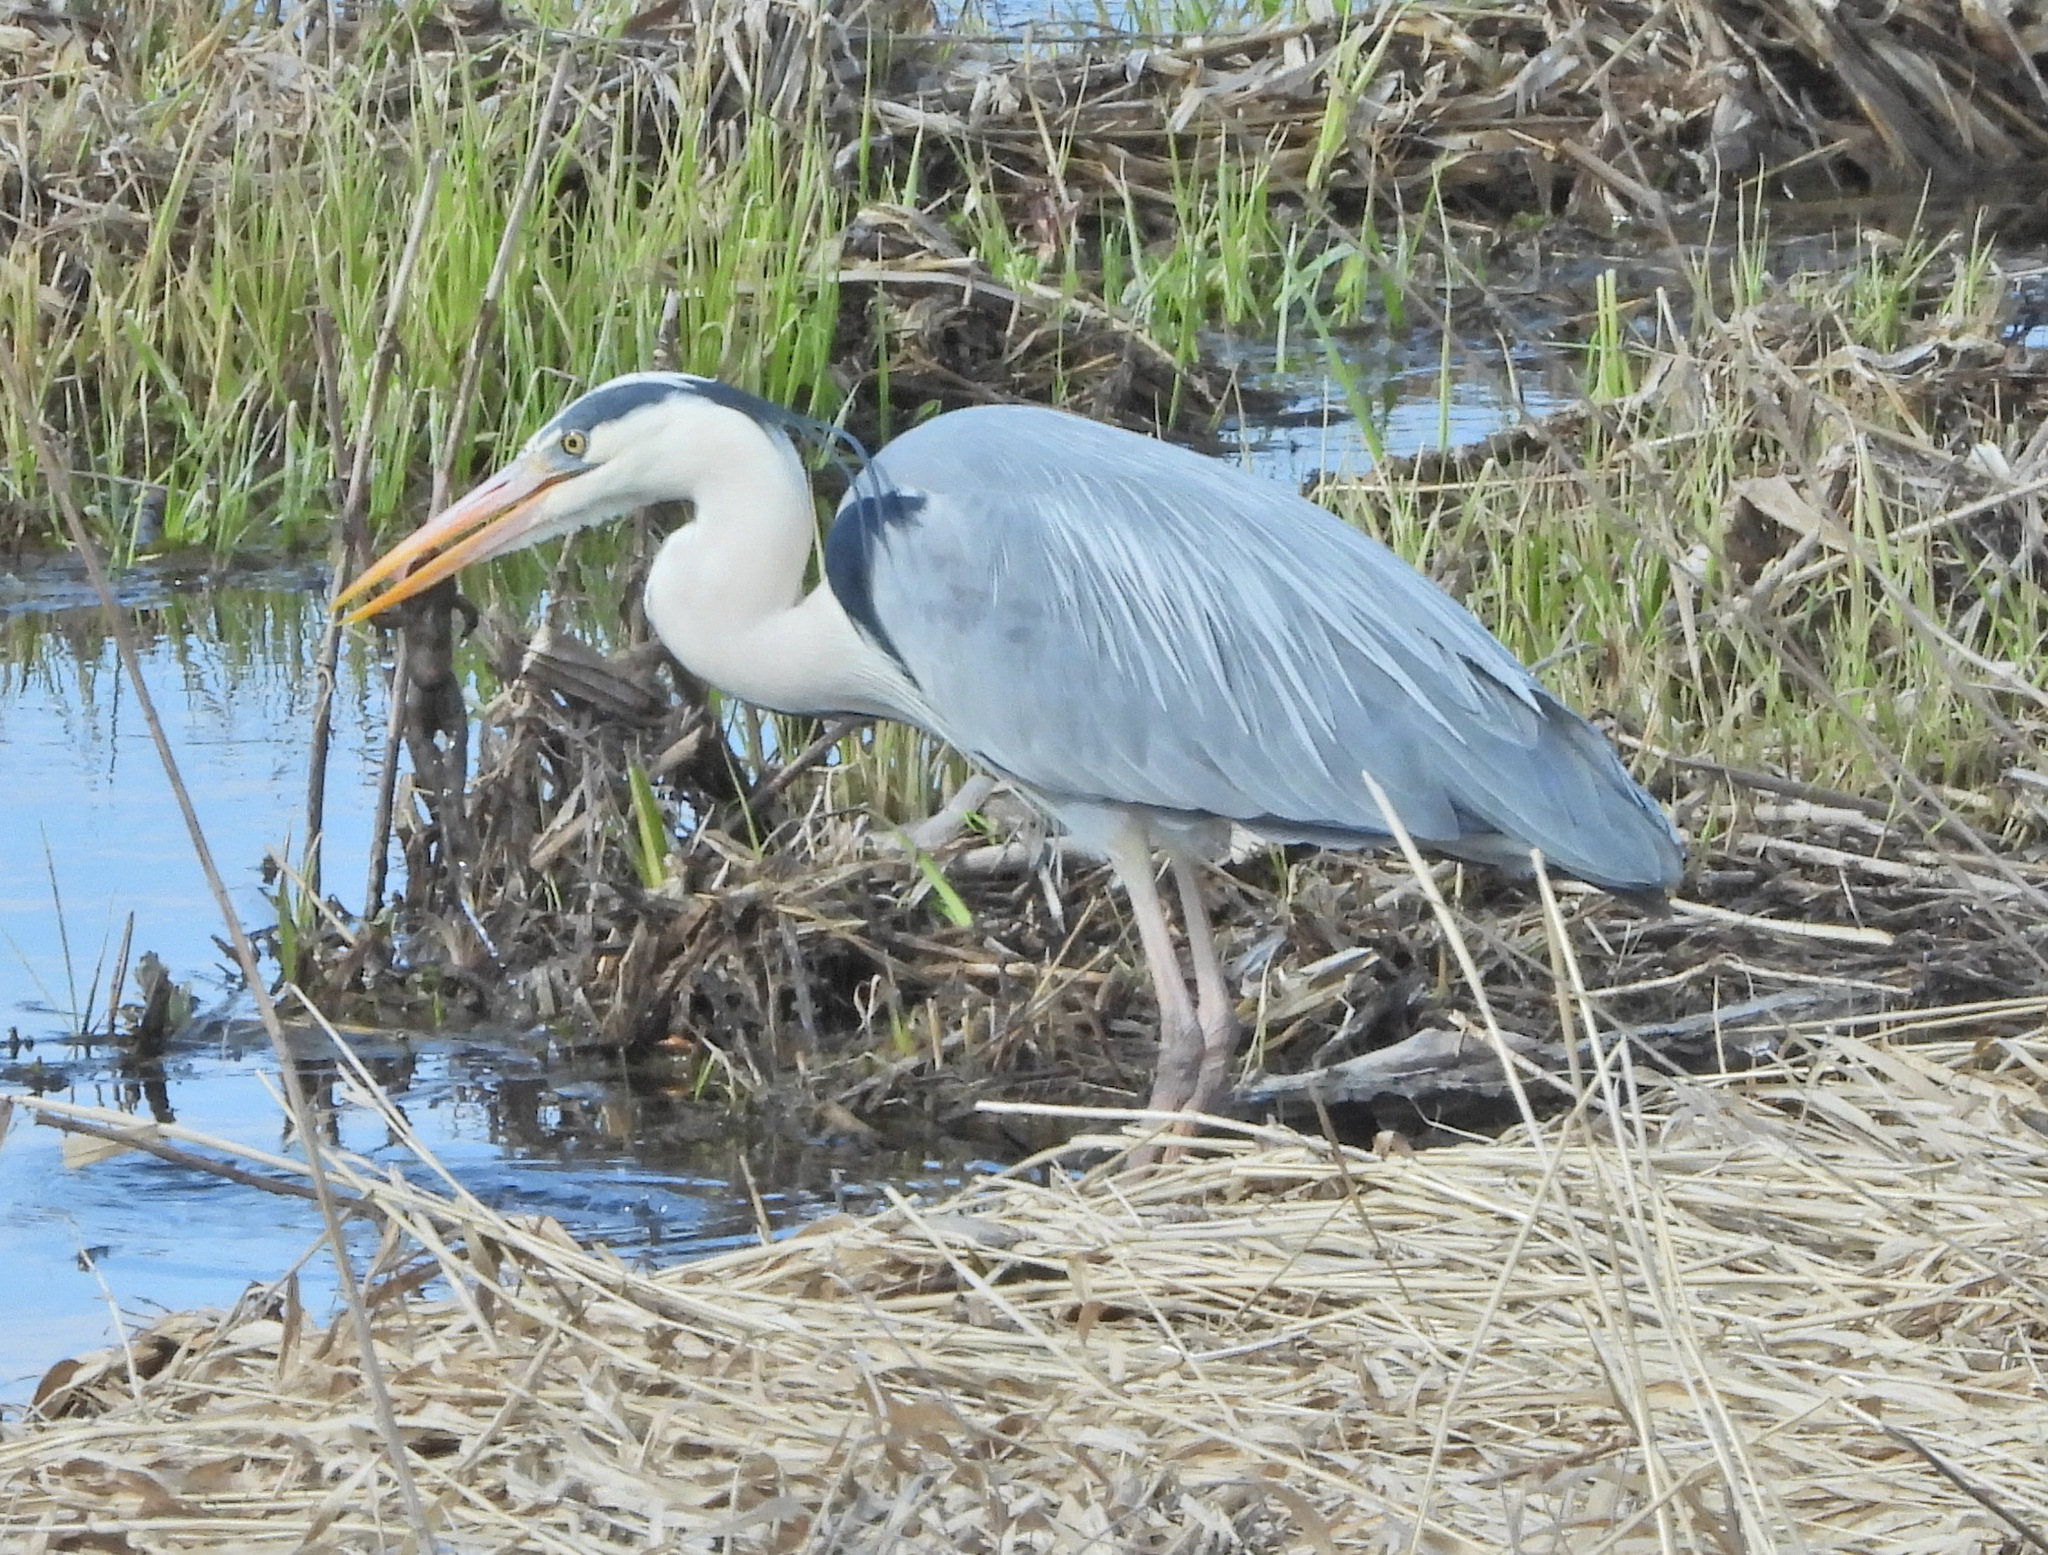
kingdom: Animalia
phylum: Chordata
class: Aves
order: Pelecaniformes
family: Ardeidae
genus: Ardea
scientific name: Ardea cinerea
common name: Grey heron
